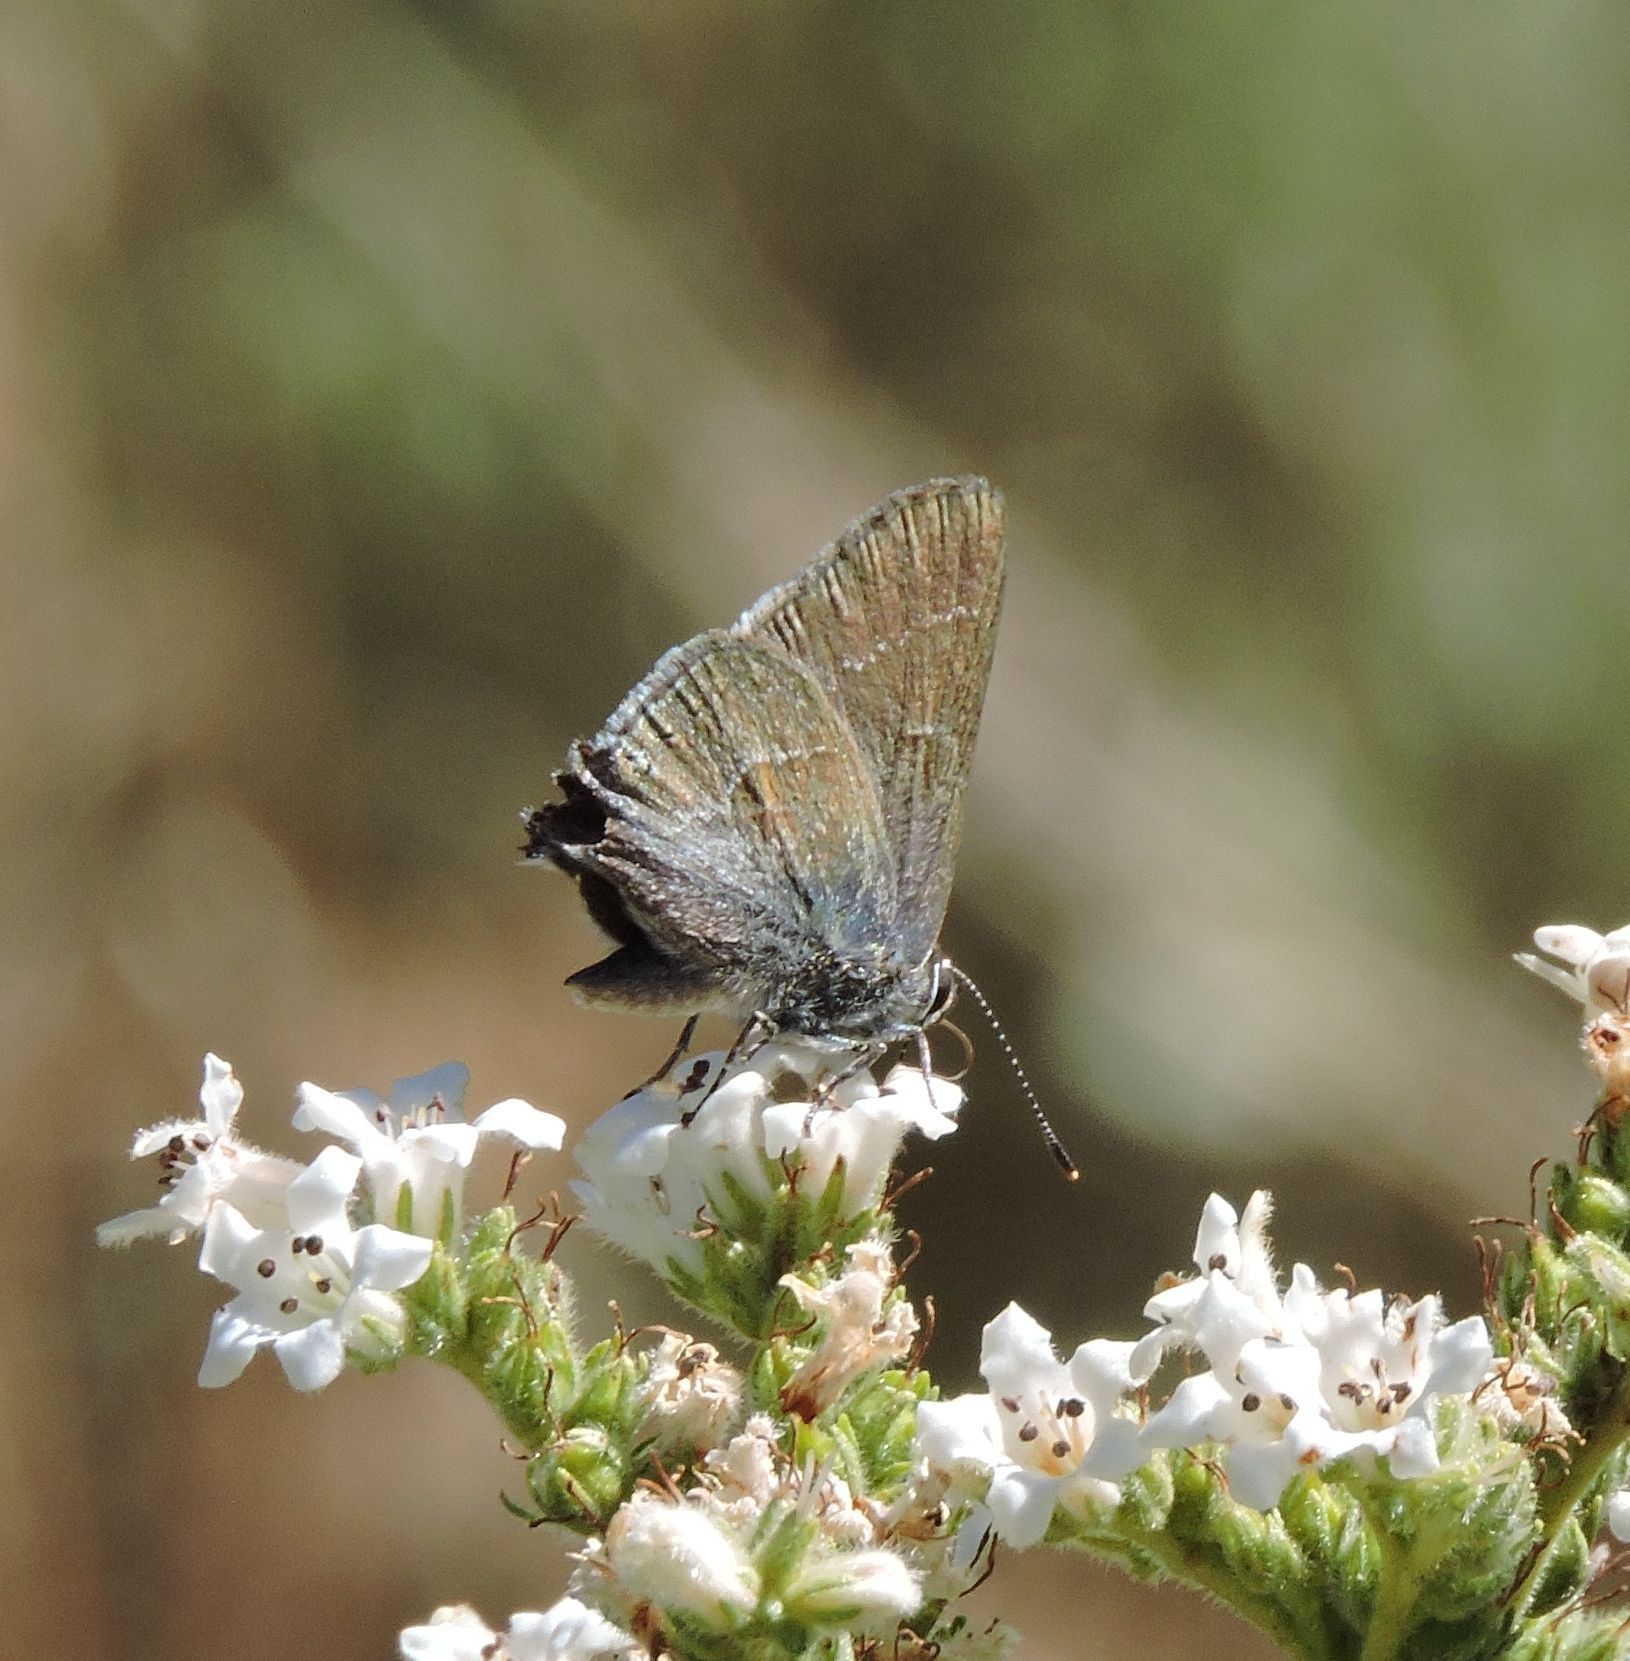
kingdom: Animalia
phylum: Arthropoda
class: Insecta
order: Lepidoptera
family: Lycaenidae
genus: Thecla
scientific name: Thecla tetra
